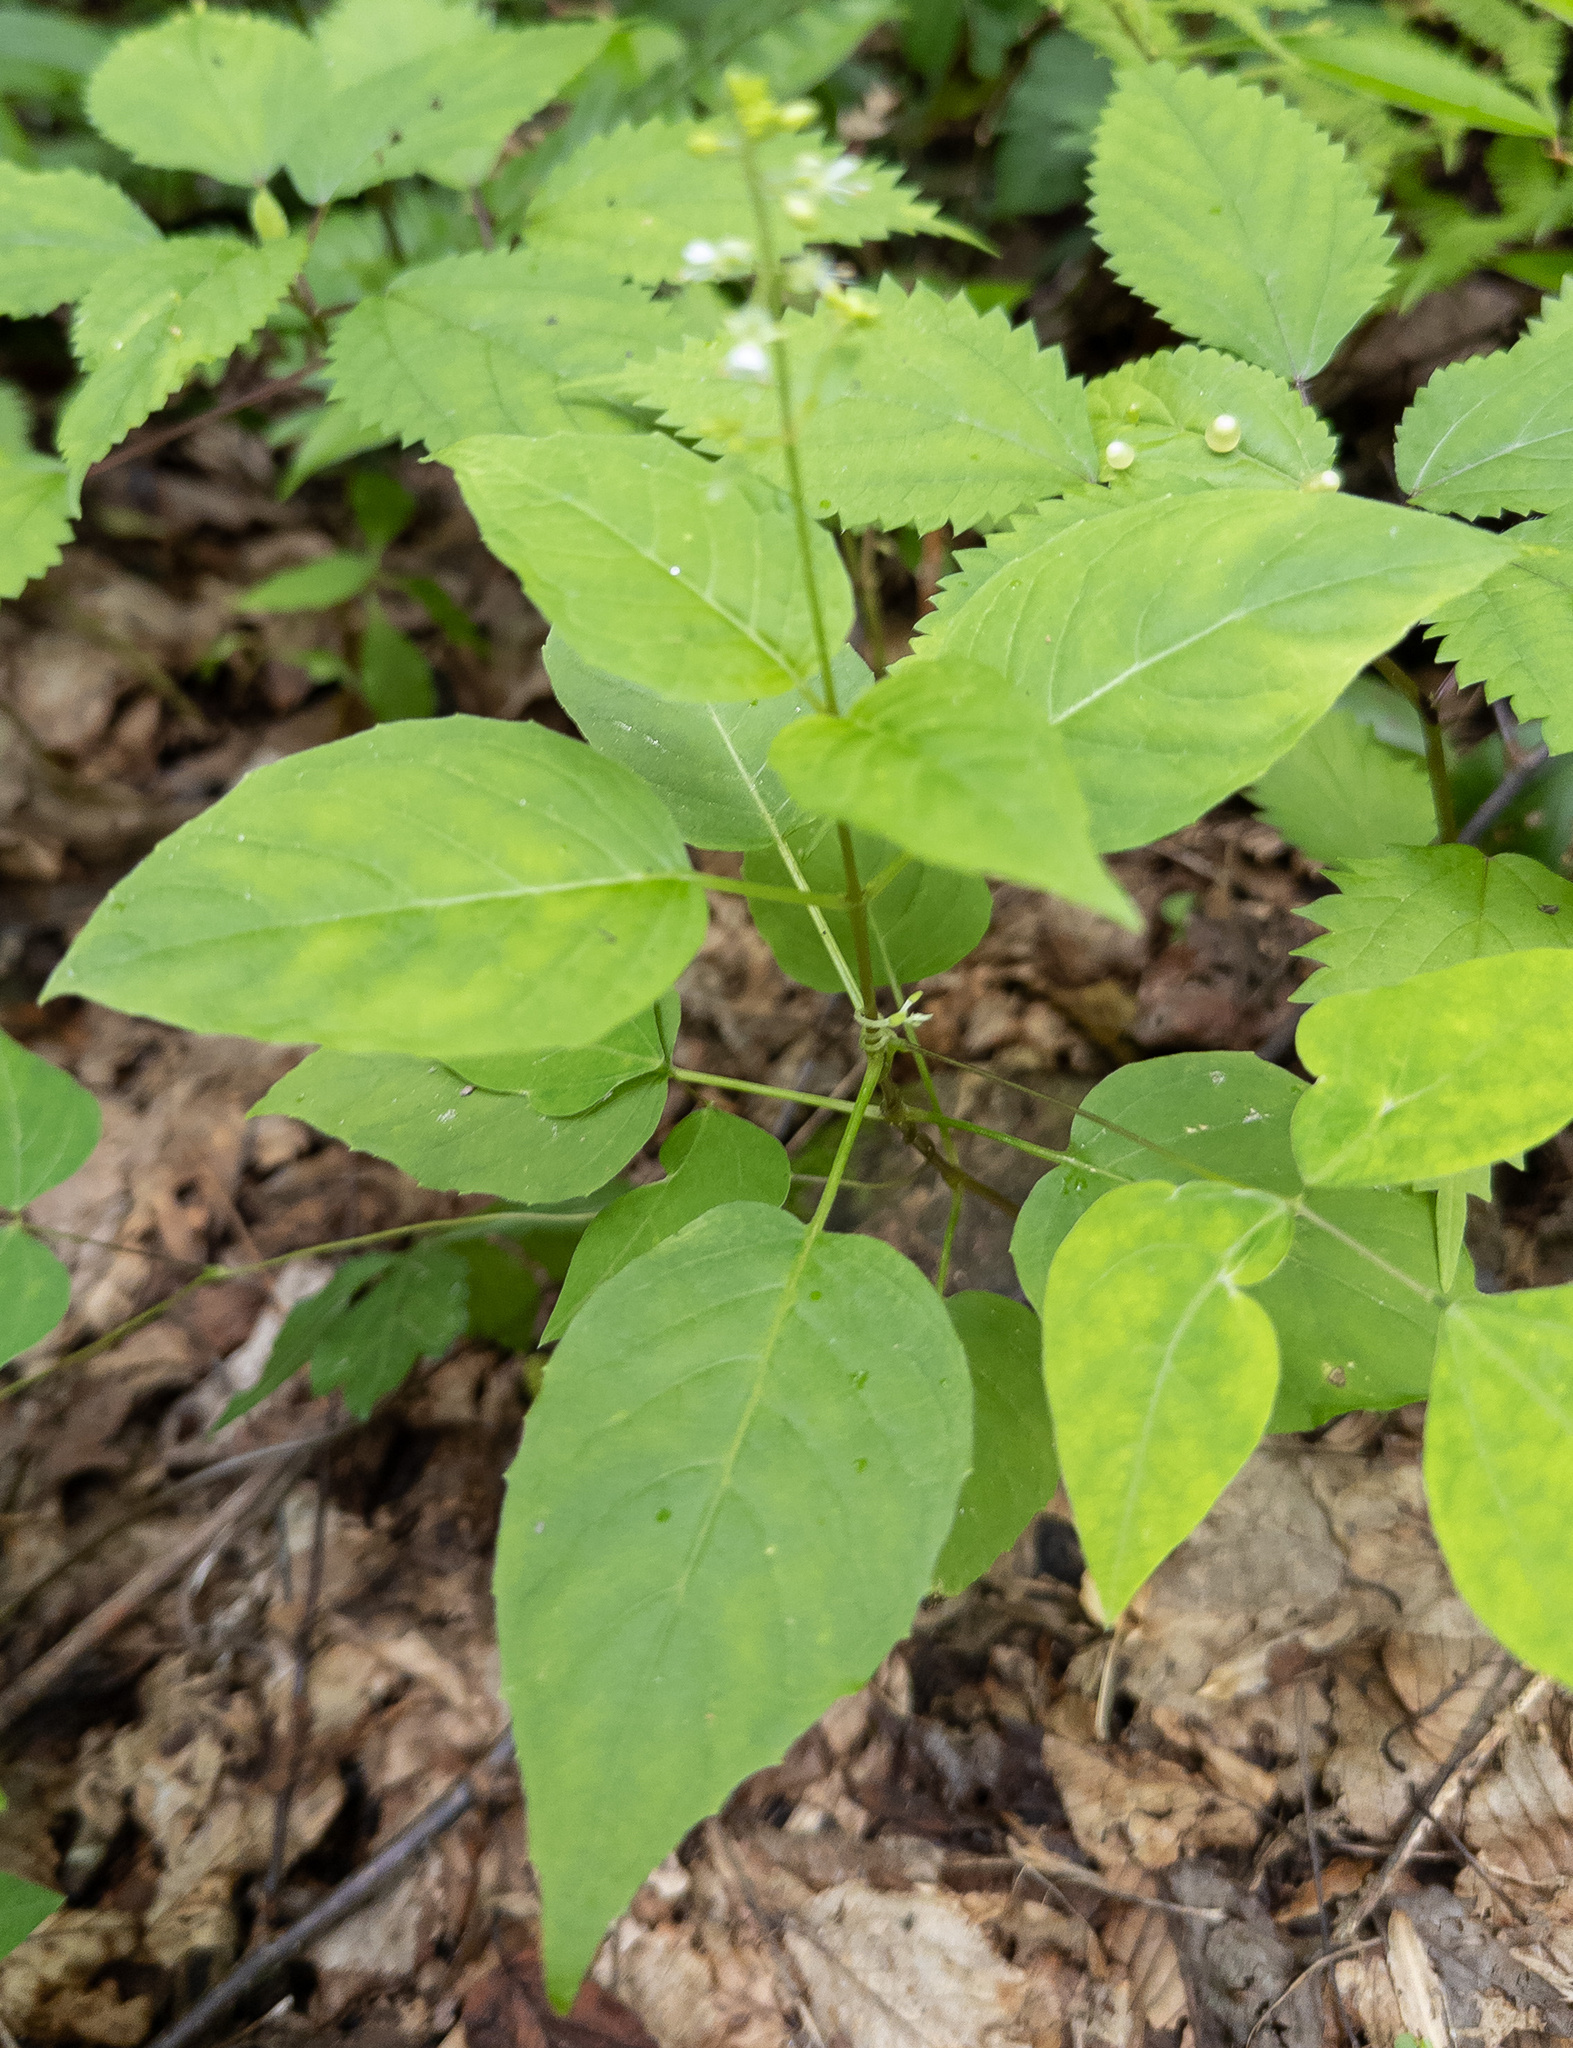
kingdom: Plantae
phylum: Tracheophyta
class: Magnoliopsida
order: Myrtales
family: Onagraceae
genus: Circaea
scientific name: Circaea canadensis
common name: Broad-leaved enchanter's nightshade
